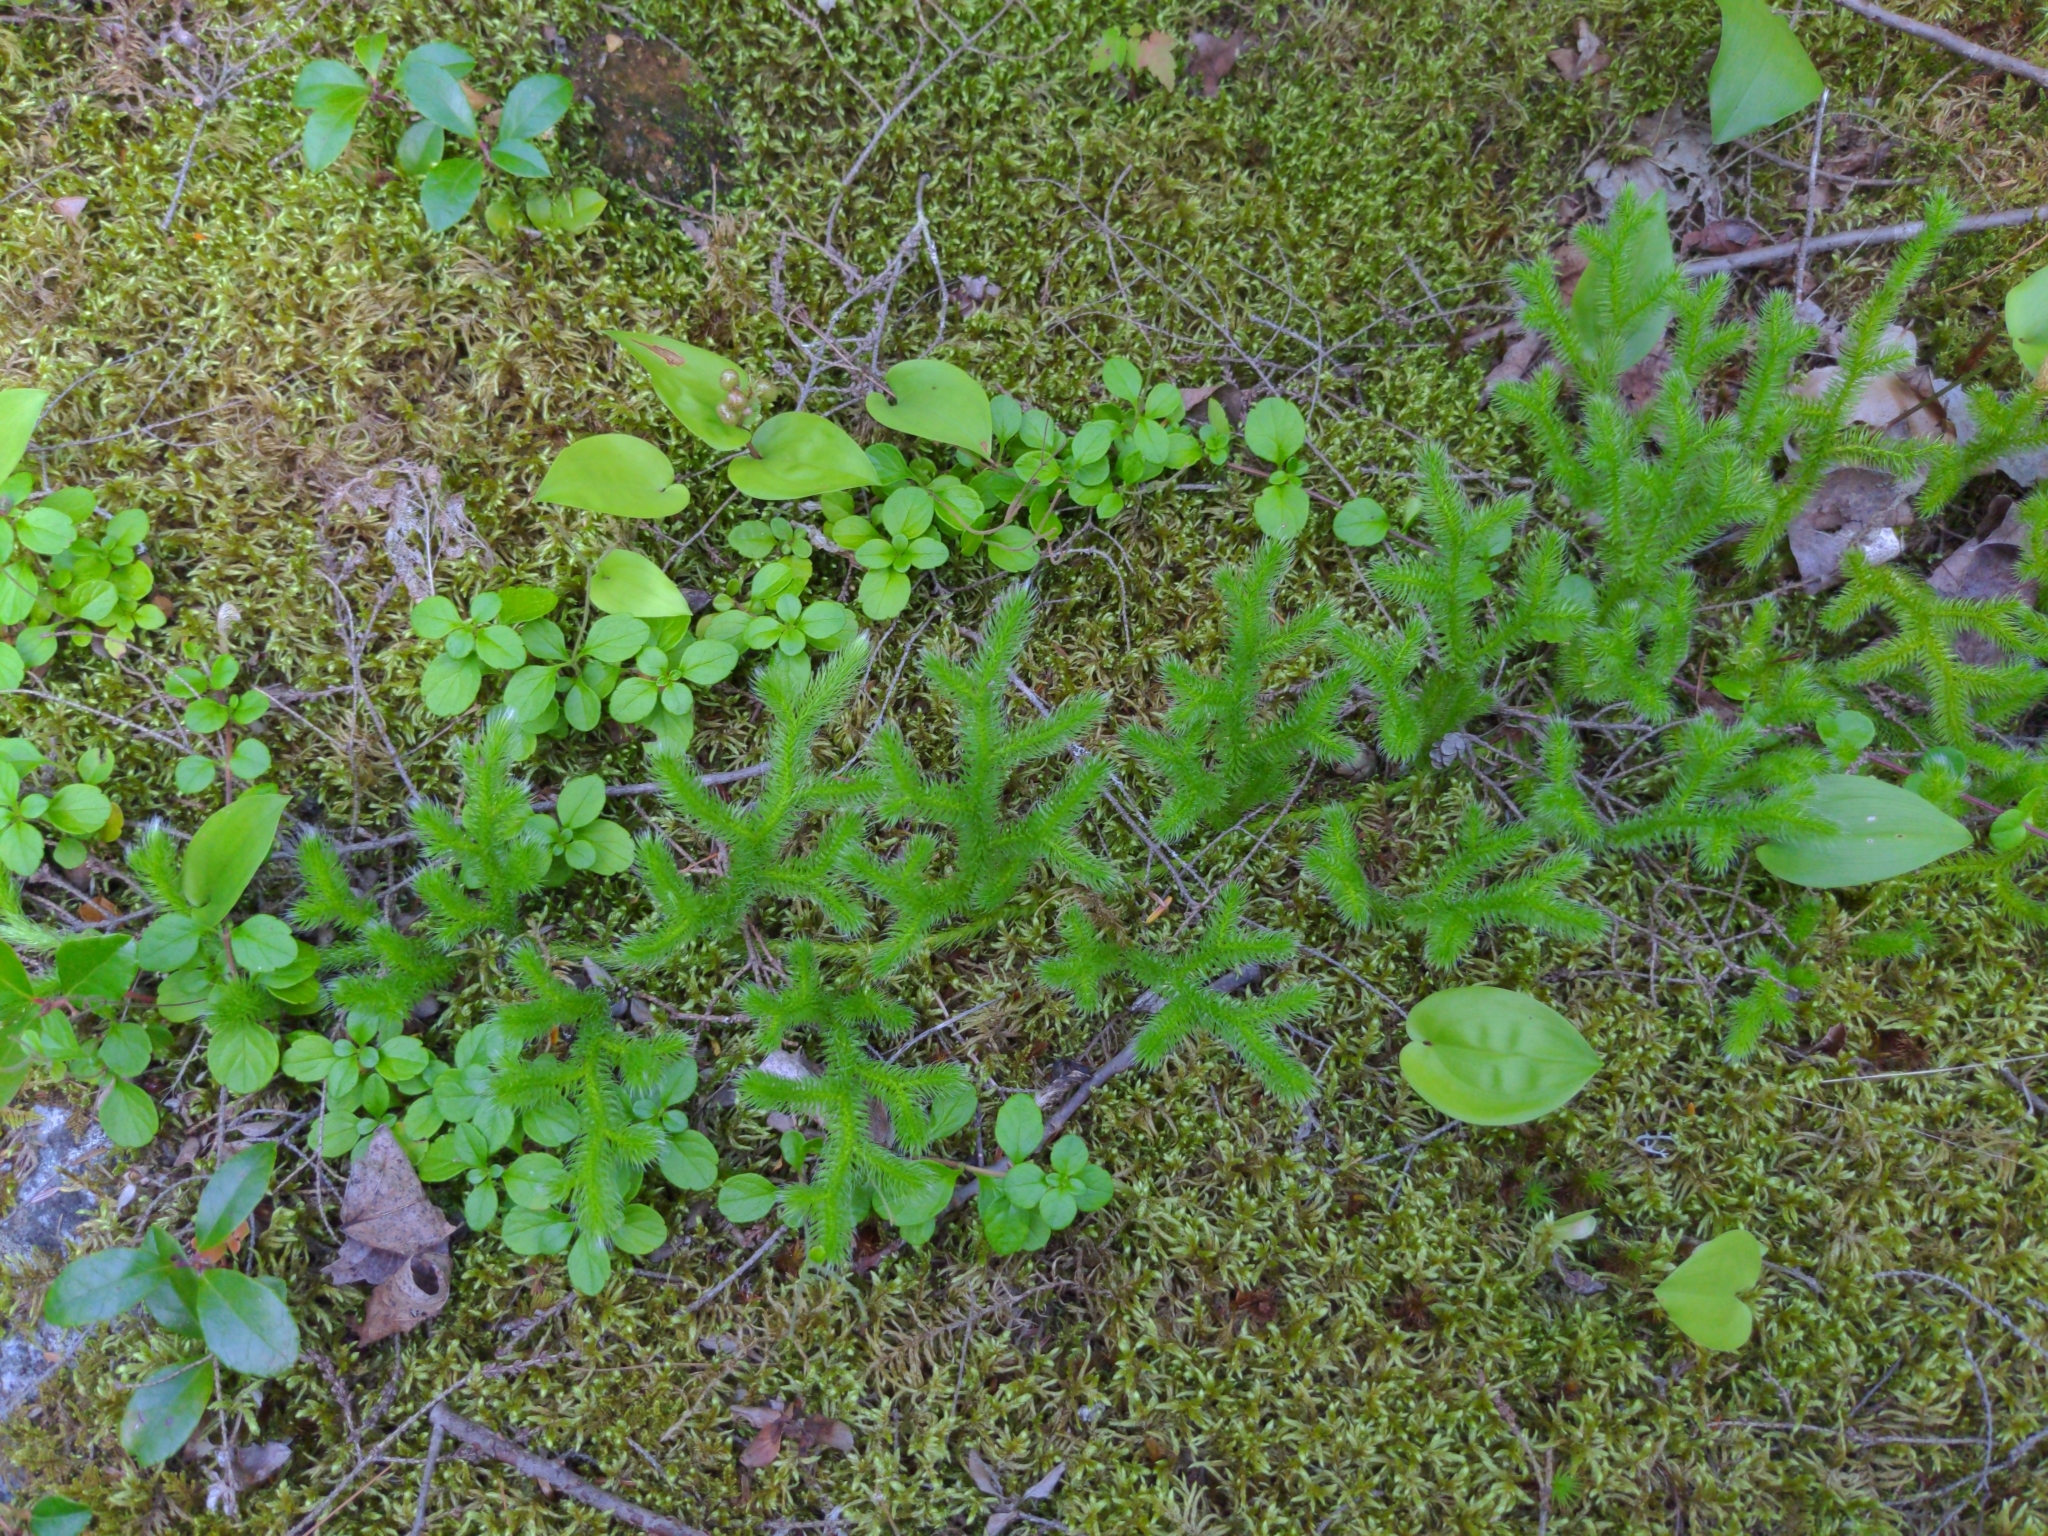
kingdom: Plantae
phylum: Tracheophyta
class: Lycopodiopsida
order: Lycopodiales
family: Lycopodiaceae
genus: Lycopodium
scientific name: Lycopodium clavatum
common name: Stag's-horn clubmoss
